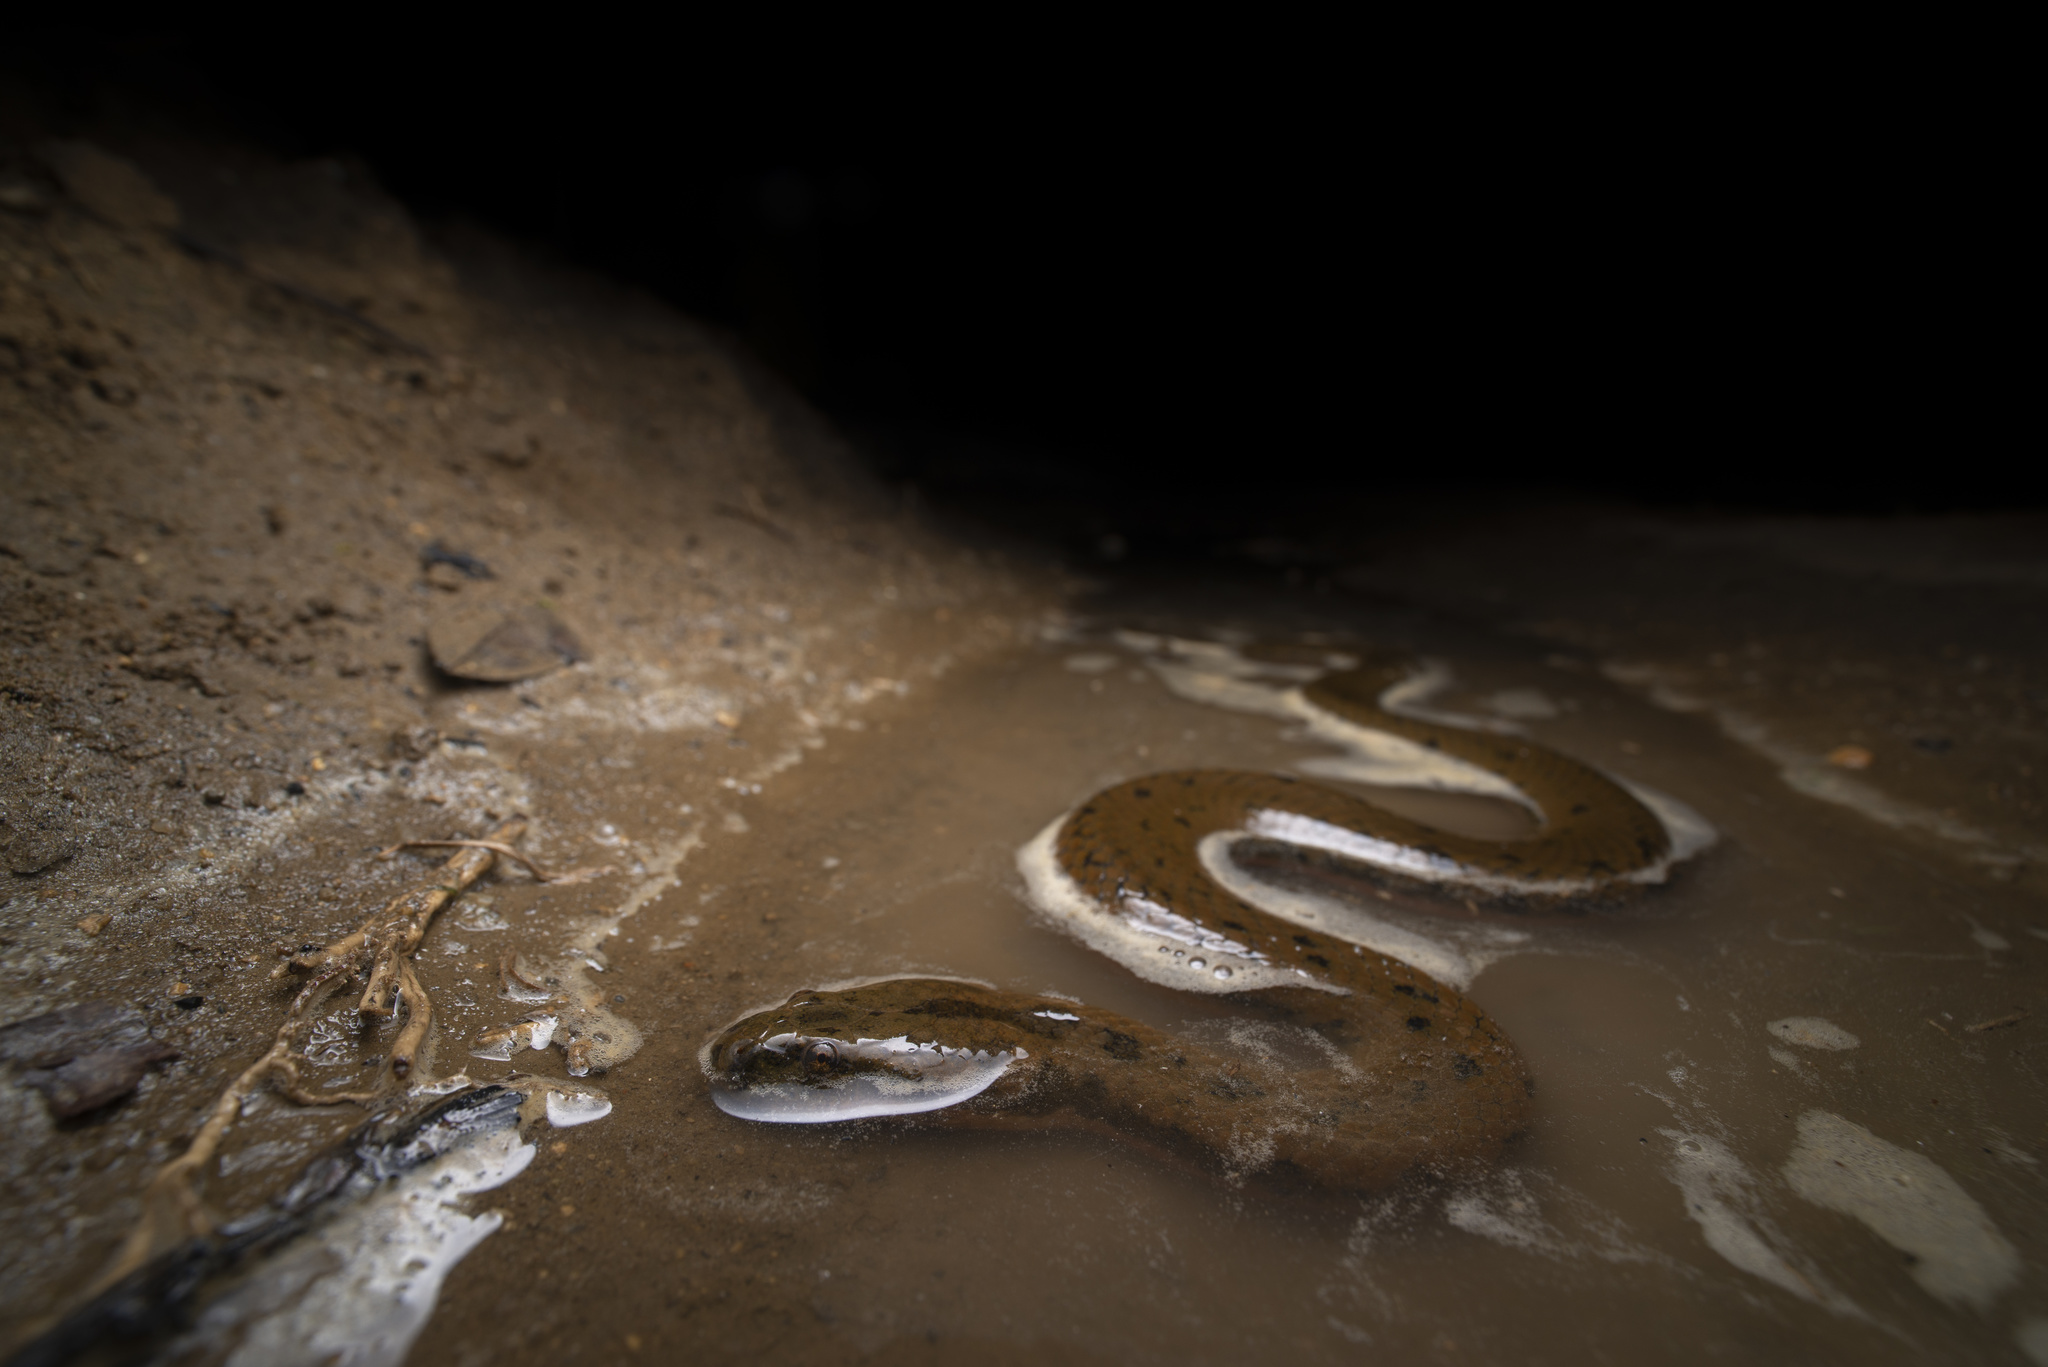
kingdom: Animalia
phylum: Chordata
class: Squamata
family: Homalopsidae
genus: Myrrophis
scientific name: Myrrophis chinensis
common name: Chinese mud snake
